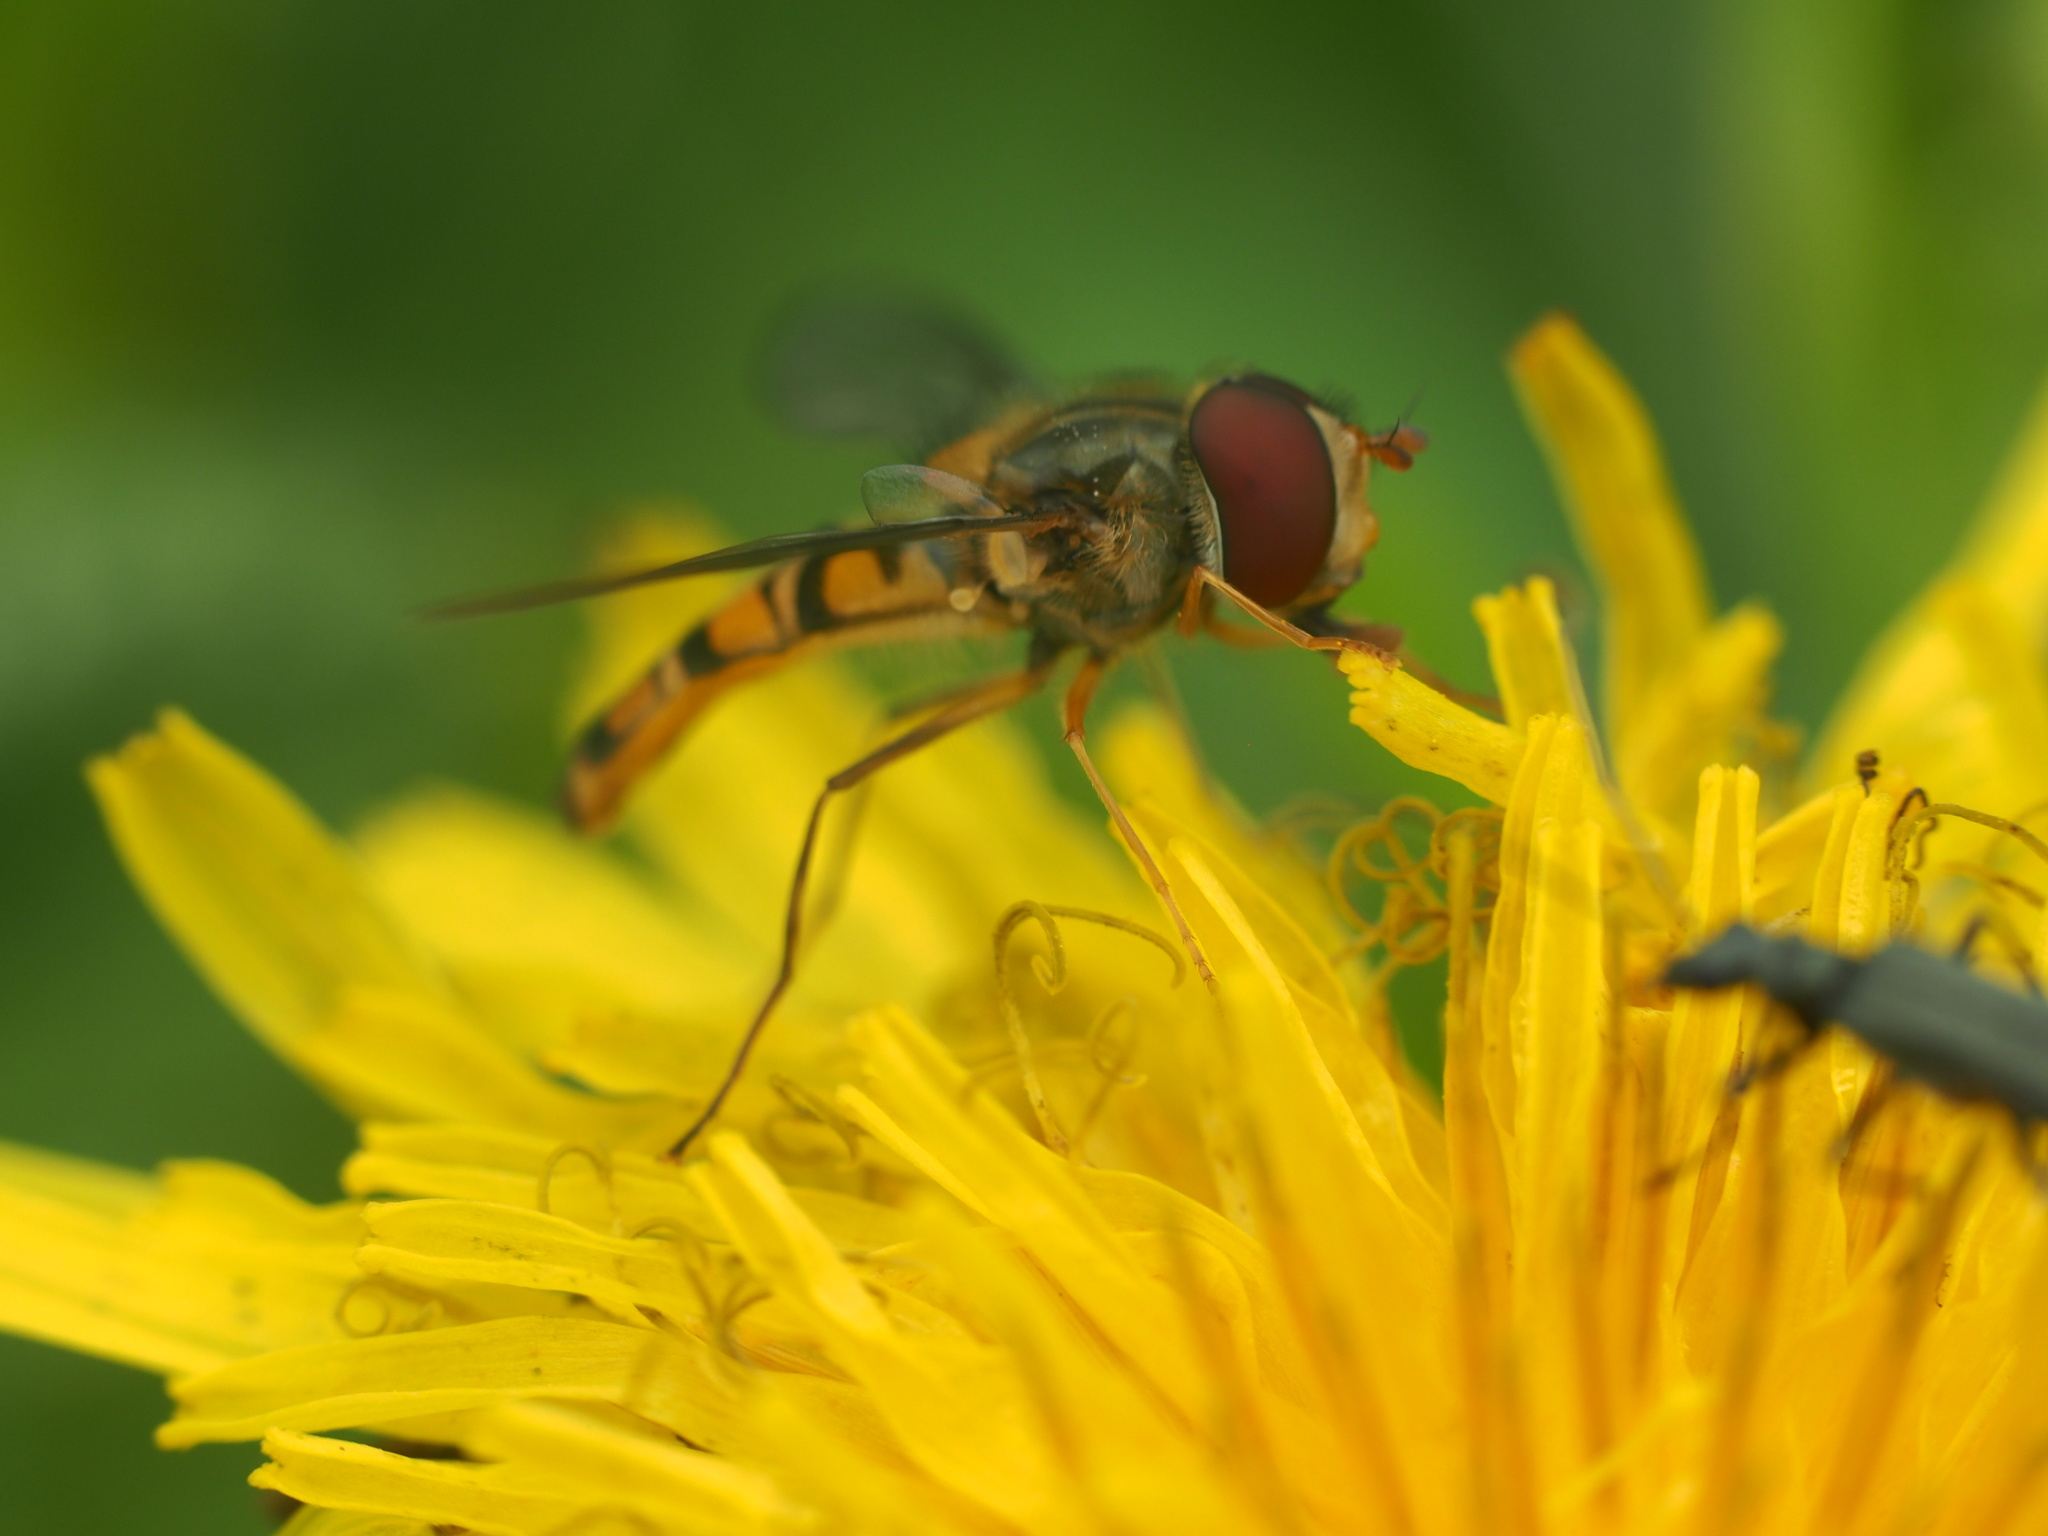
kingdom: Animalia
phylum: Arthropoda
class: Insecta
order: Diptera
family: Syrphidae
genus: Episyrphus
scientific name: Episyrphus balteatus
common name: Marmalade hoverfly
